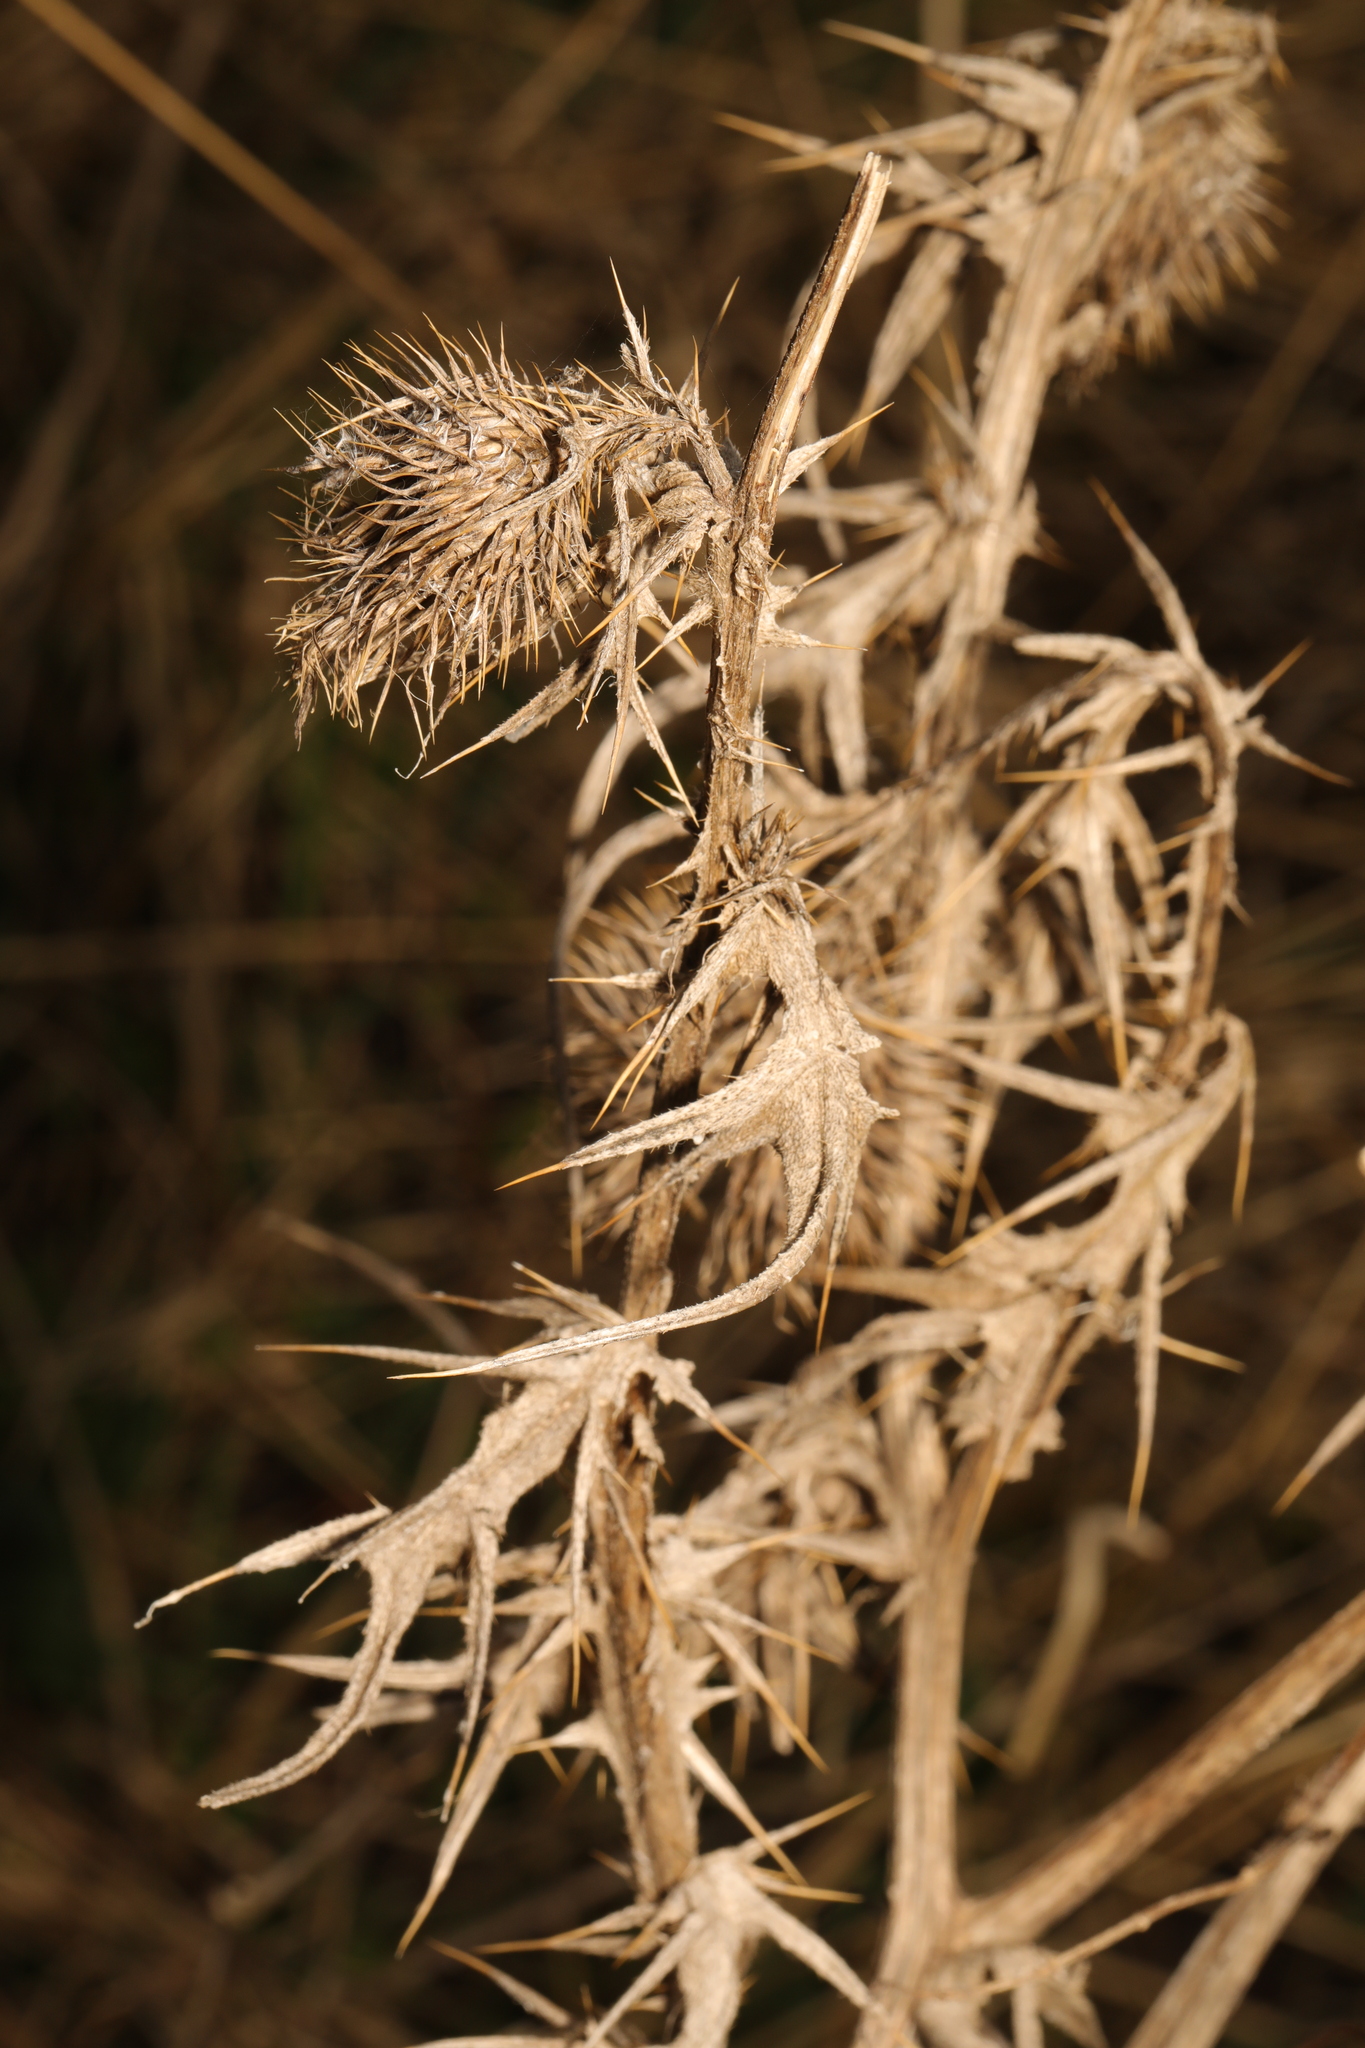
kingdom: Plantae
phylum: Tracheophyta
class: Magnoliopsida
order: Asterales
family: Asteraceae
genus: Cirsium
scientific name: Cirsium vulgare
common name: Bull thistle
